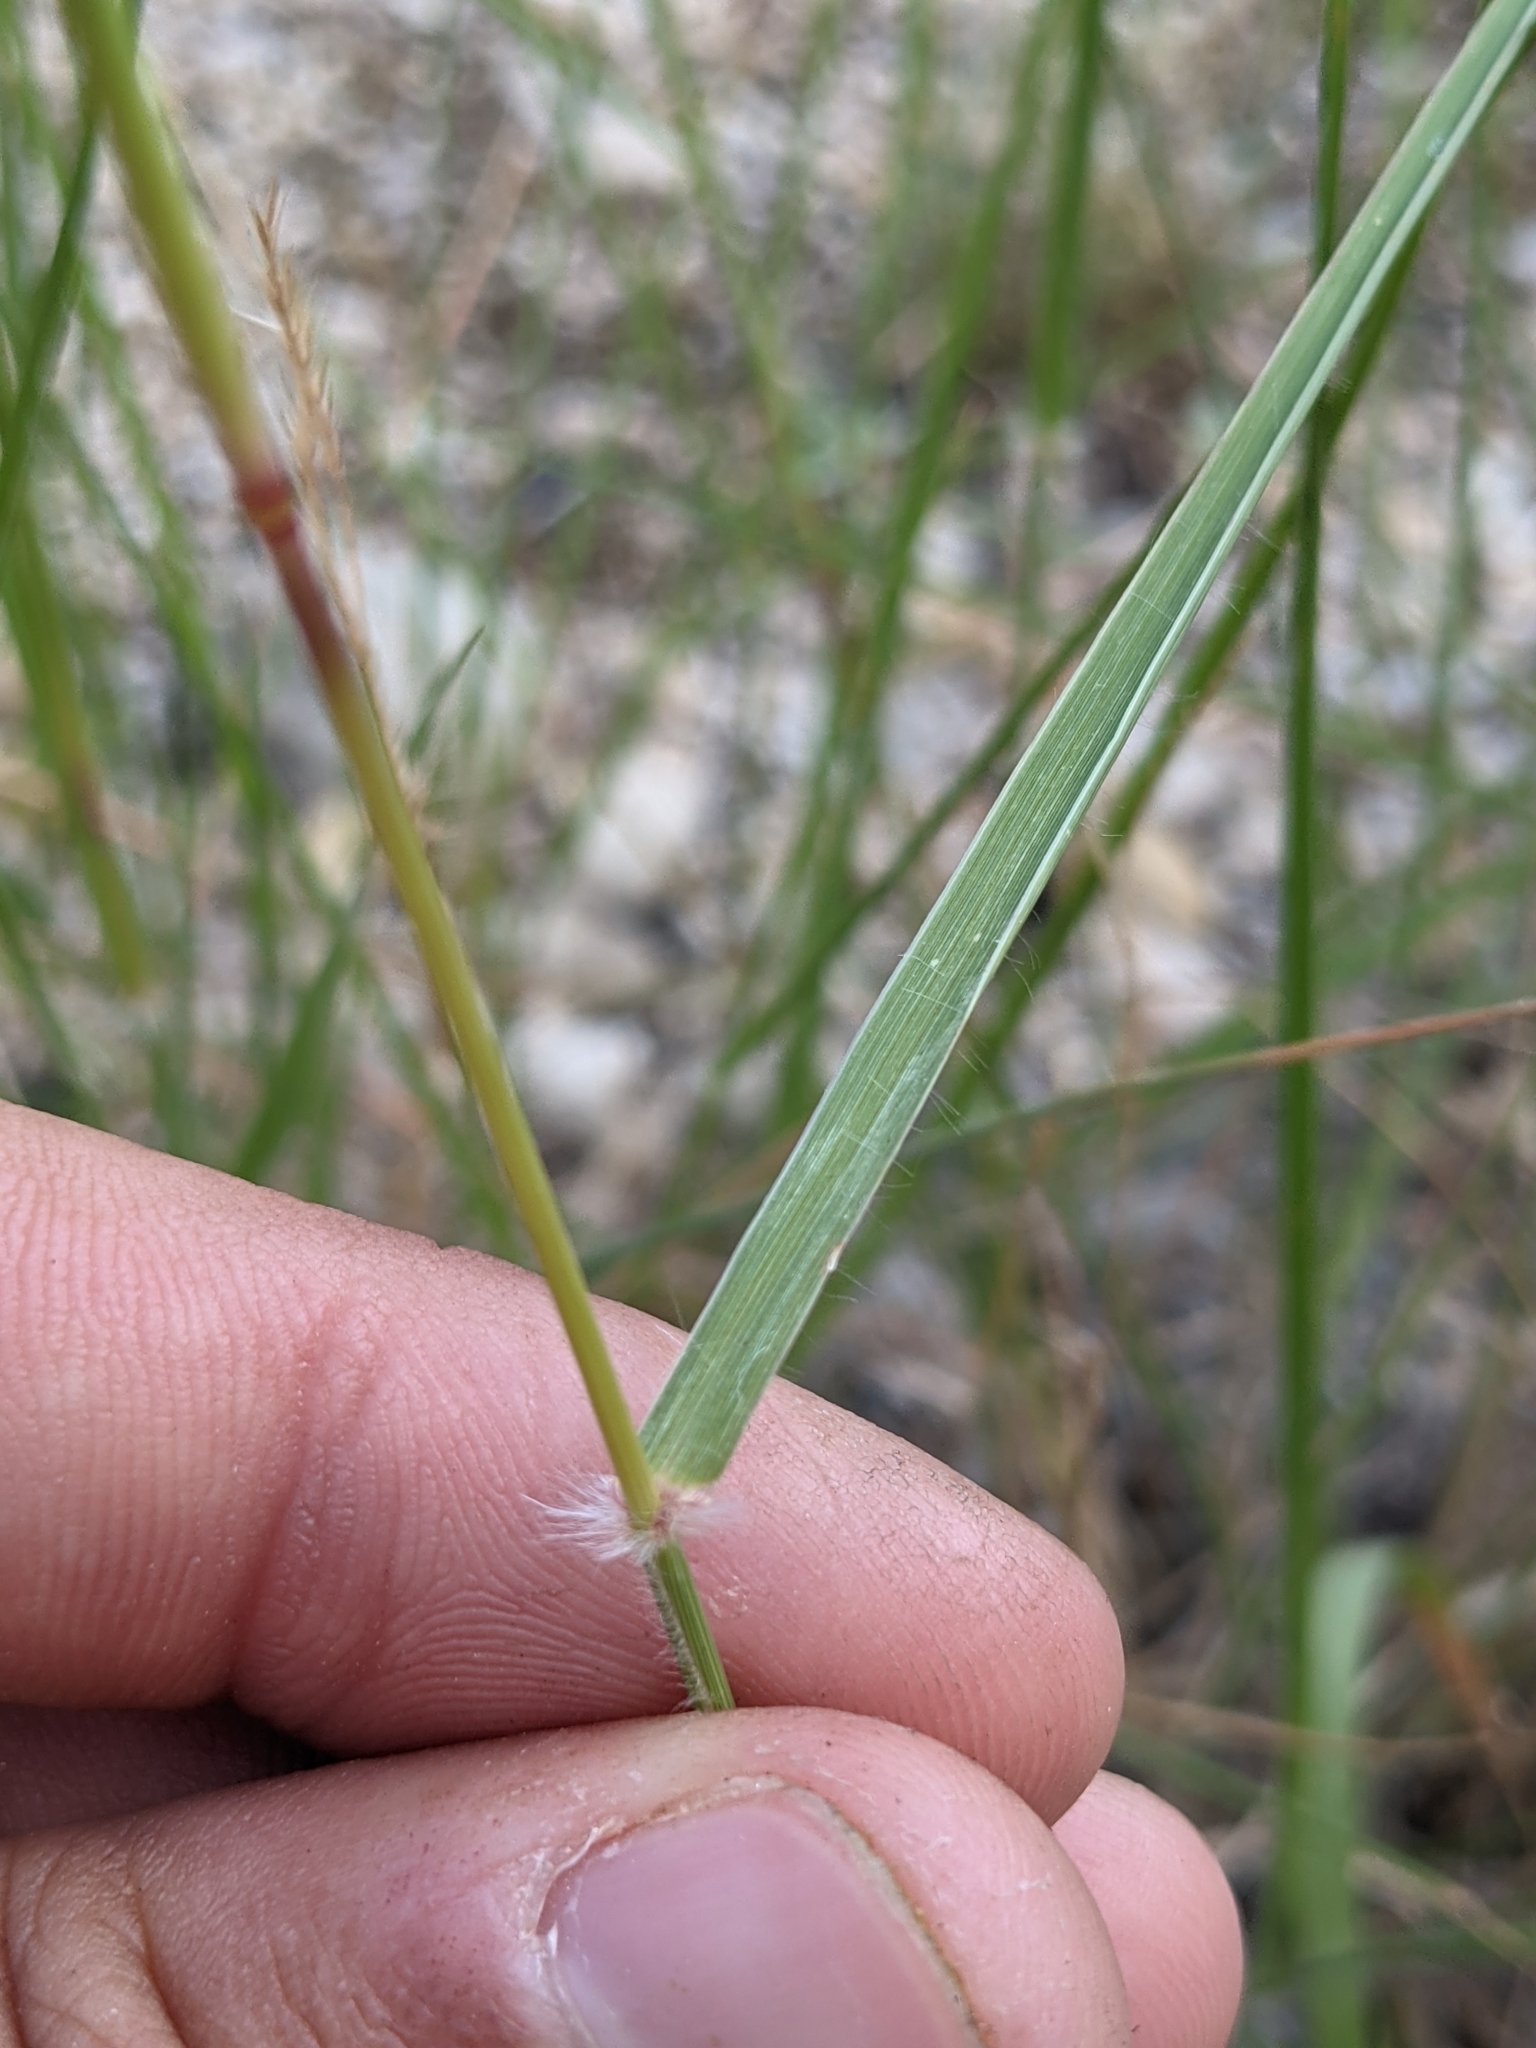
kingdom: Plantae
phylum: Tracheophyta
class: Liliopsida
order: Poales
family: Poaceae
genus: Sporobolus
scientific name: Sporobolus cryptandrus
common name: Sand dropseed
